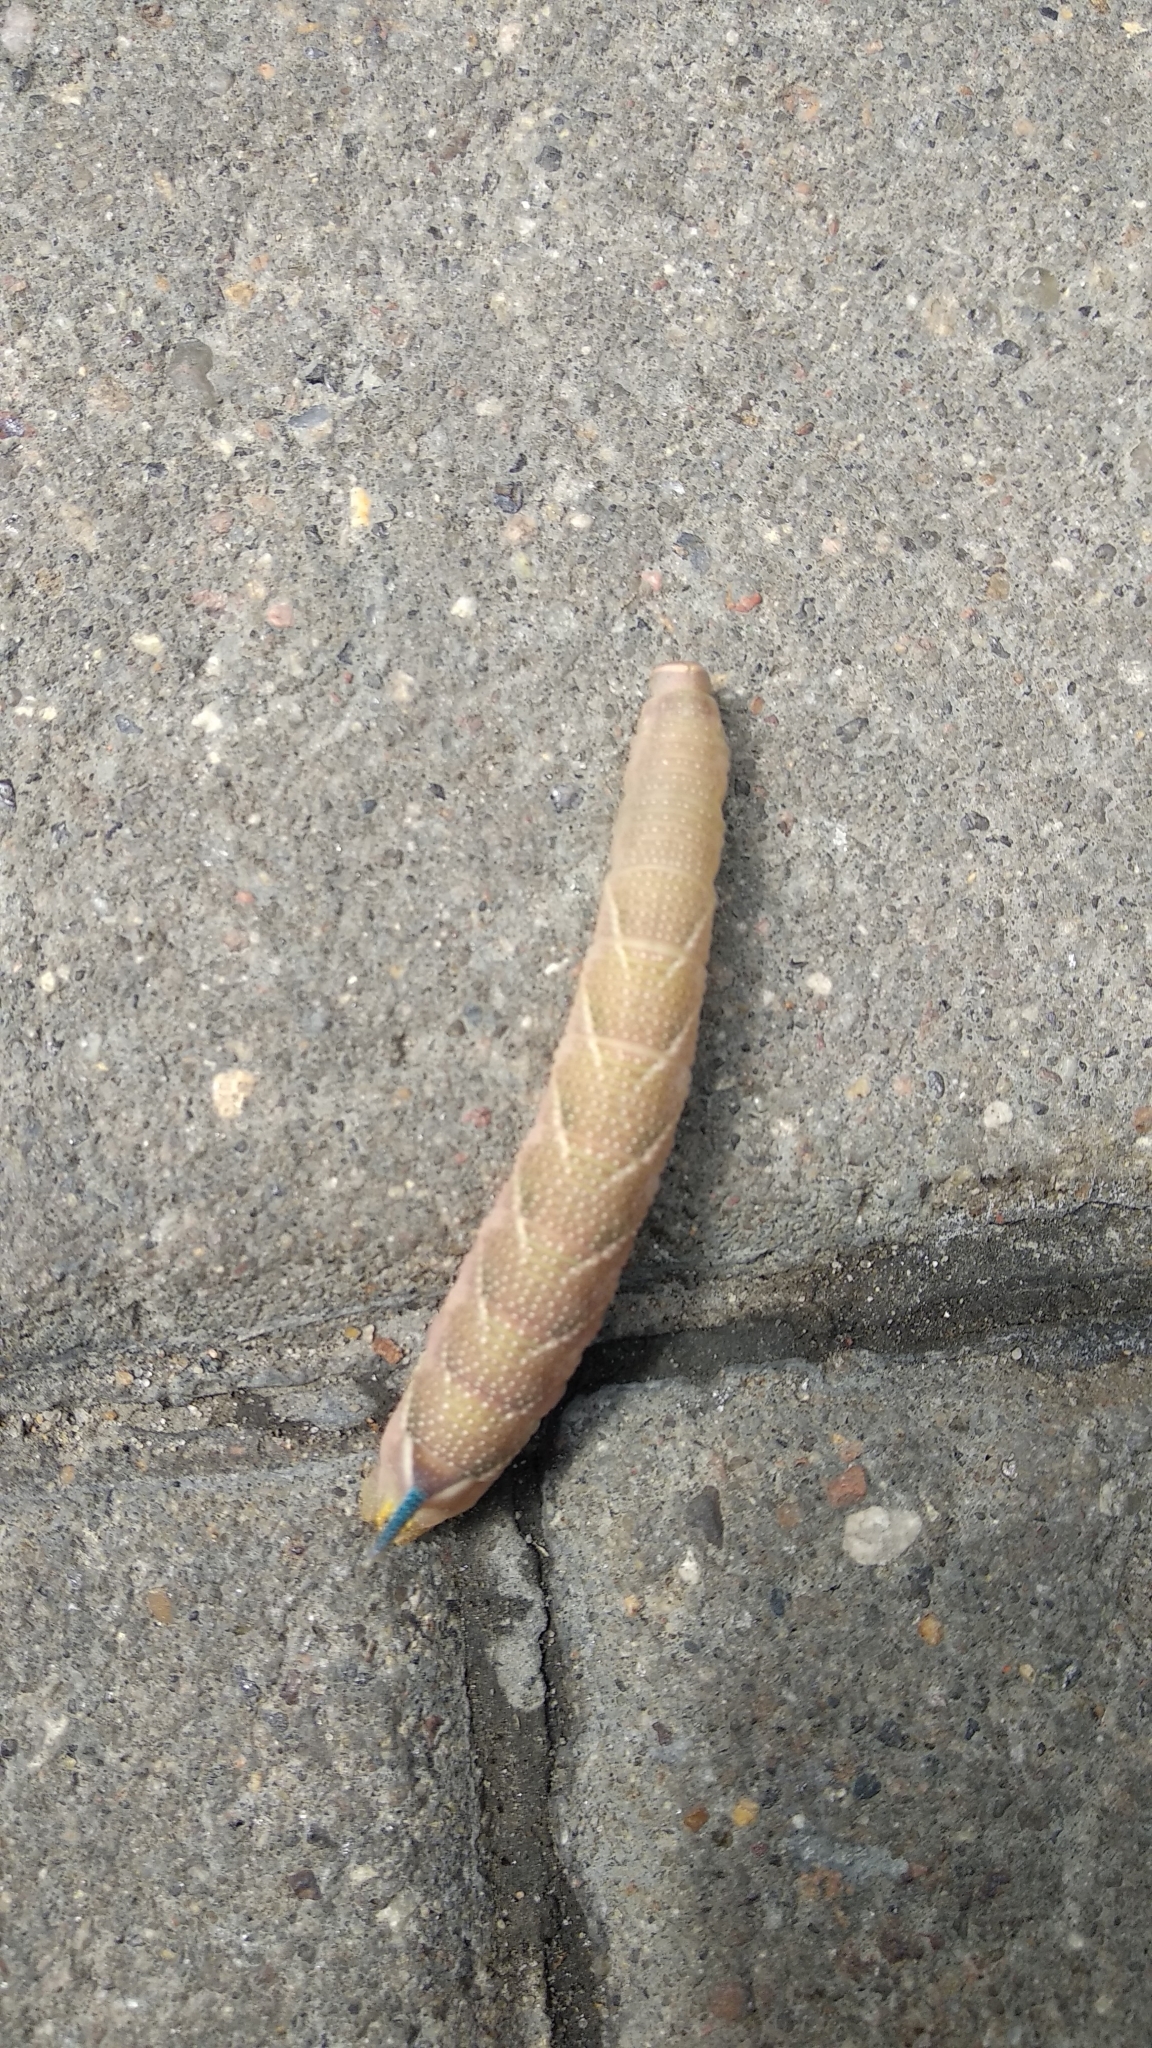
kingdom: Animalia
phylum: Arthropoda
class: Insecta
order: Lepidoptera
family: Sphingidae
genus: Mimas
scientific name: Mimas tiliae
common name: Lime hawk-moth
